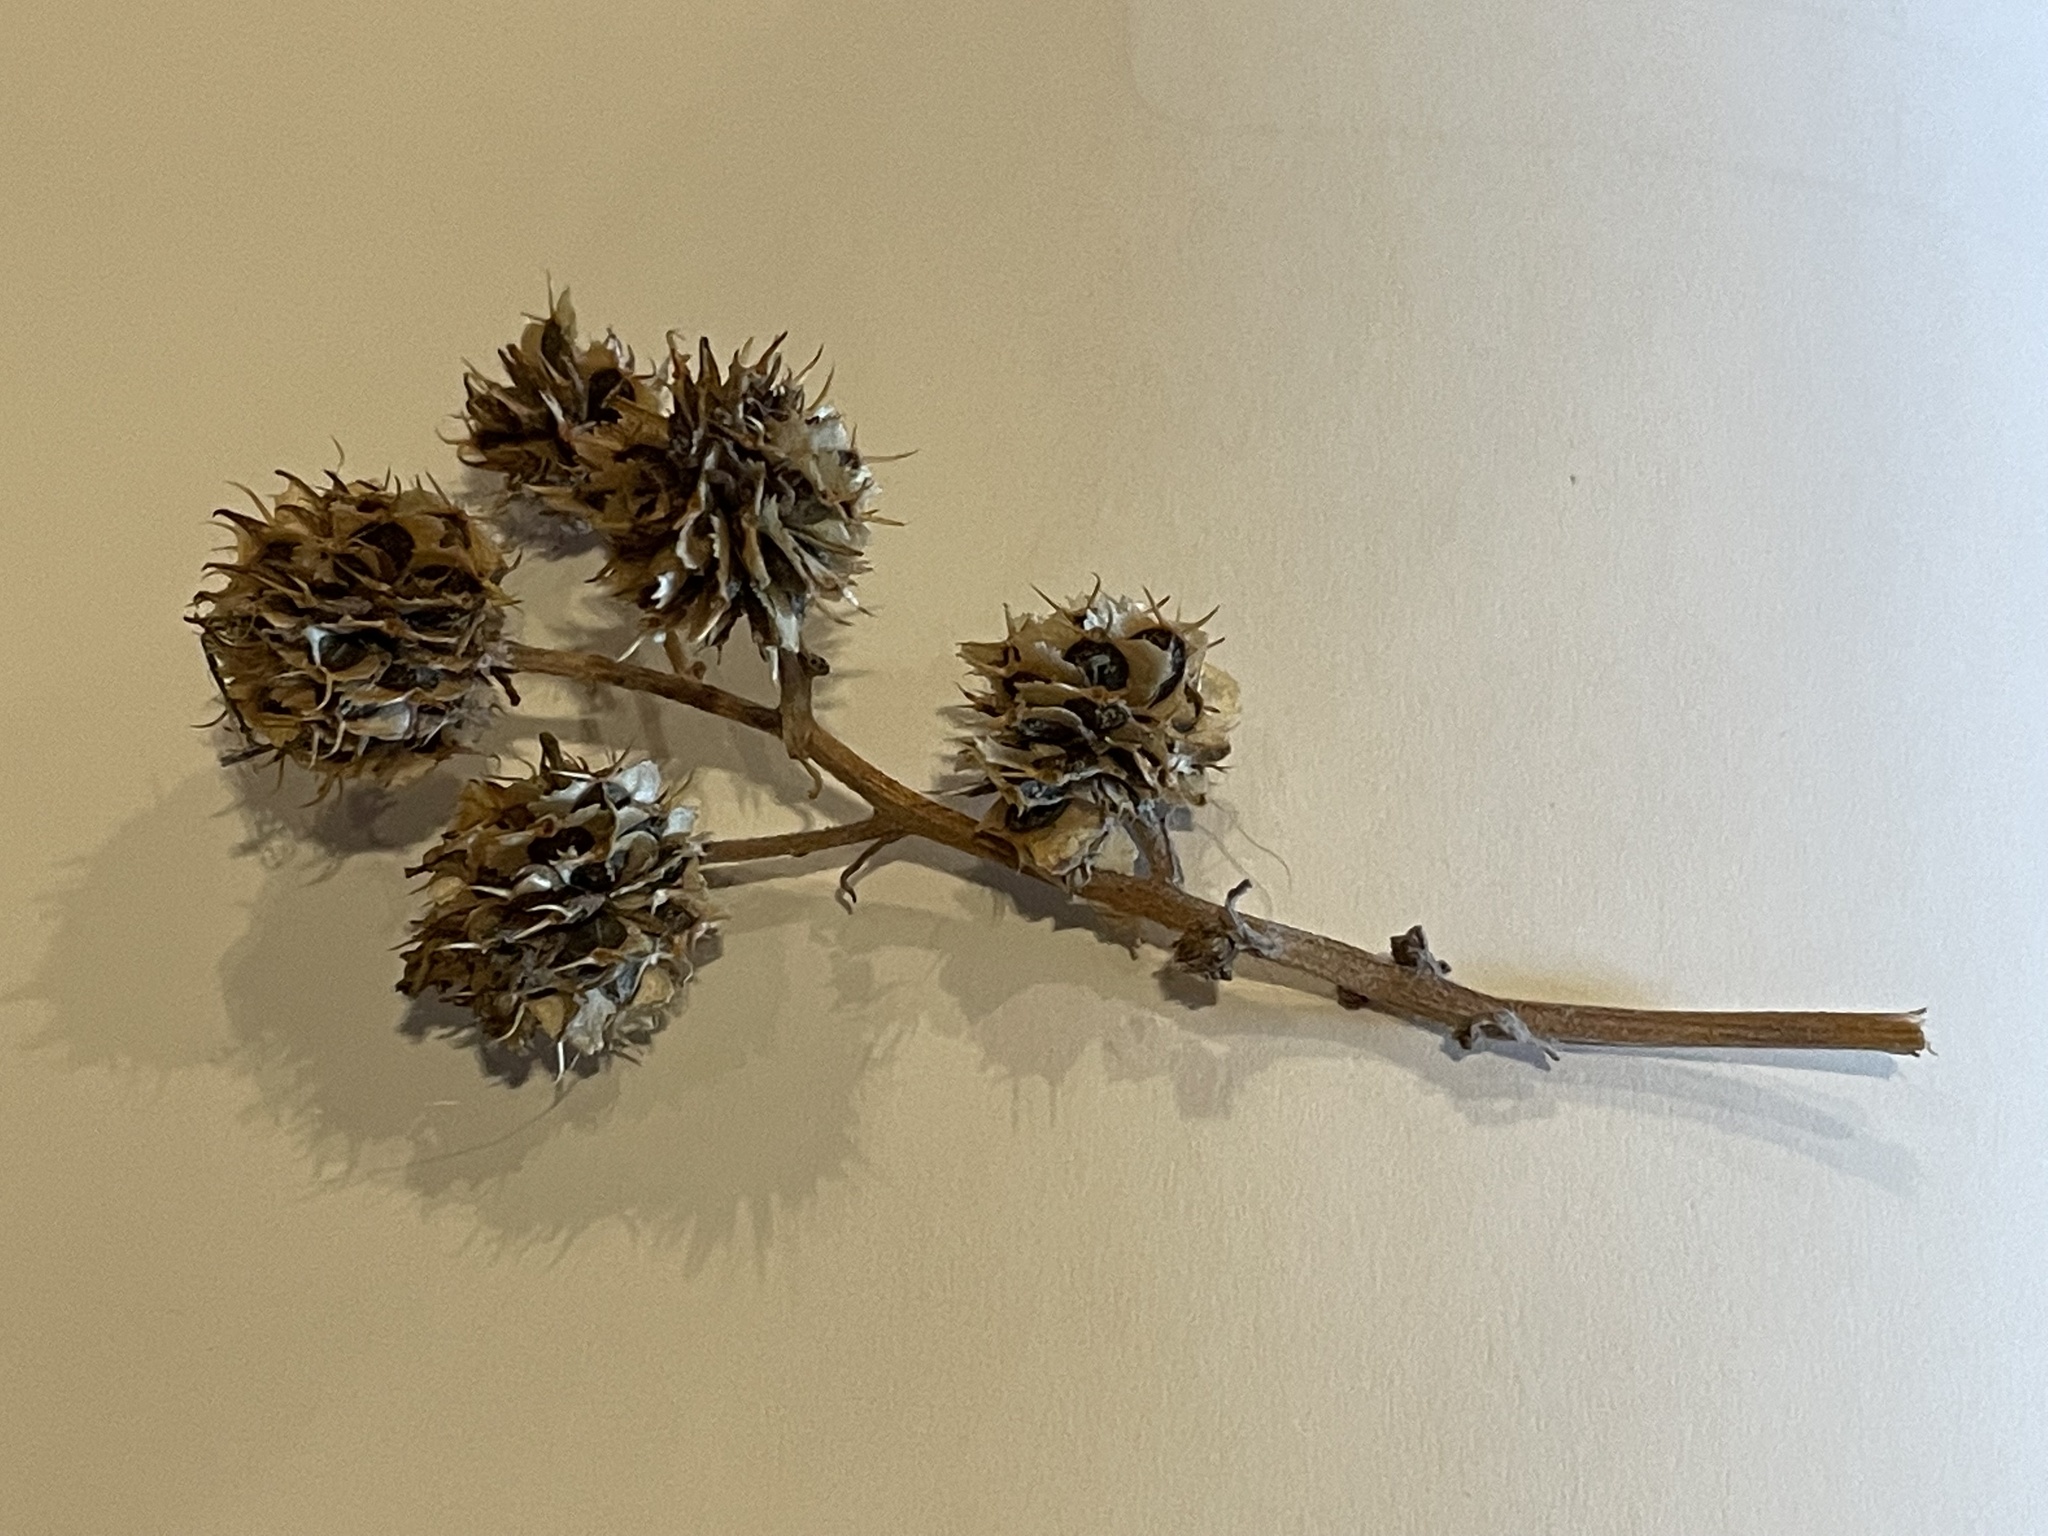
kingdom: Plantae
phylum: Tracheophyta
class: Magnoliopsida
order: Asterales
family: Asteraceae
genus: Verbesina
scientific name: Verbesina alternifolia
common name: Wingstem
